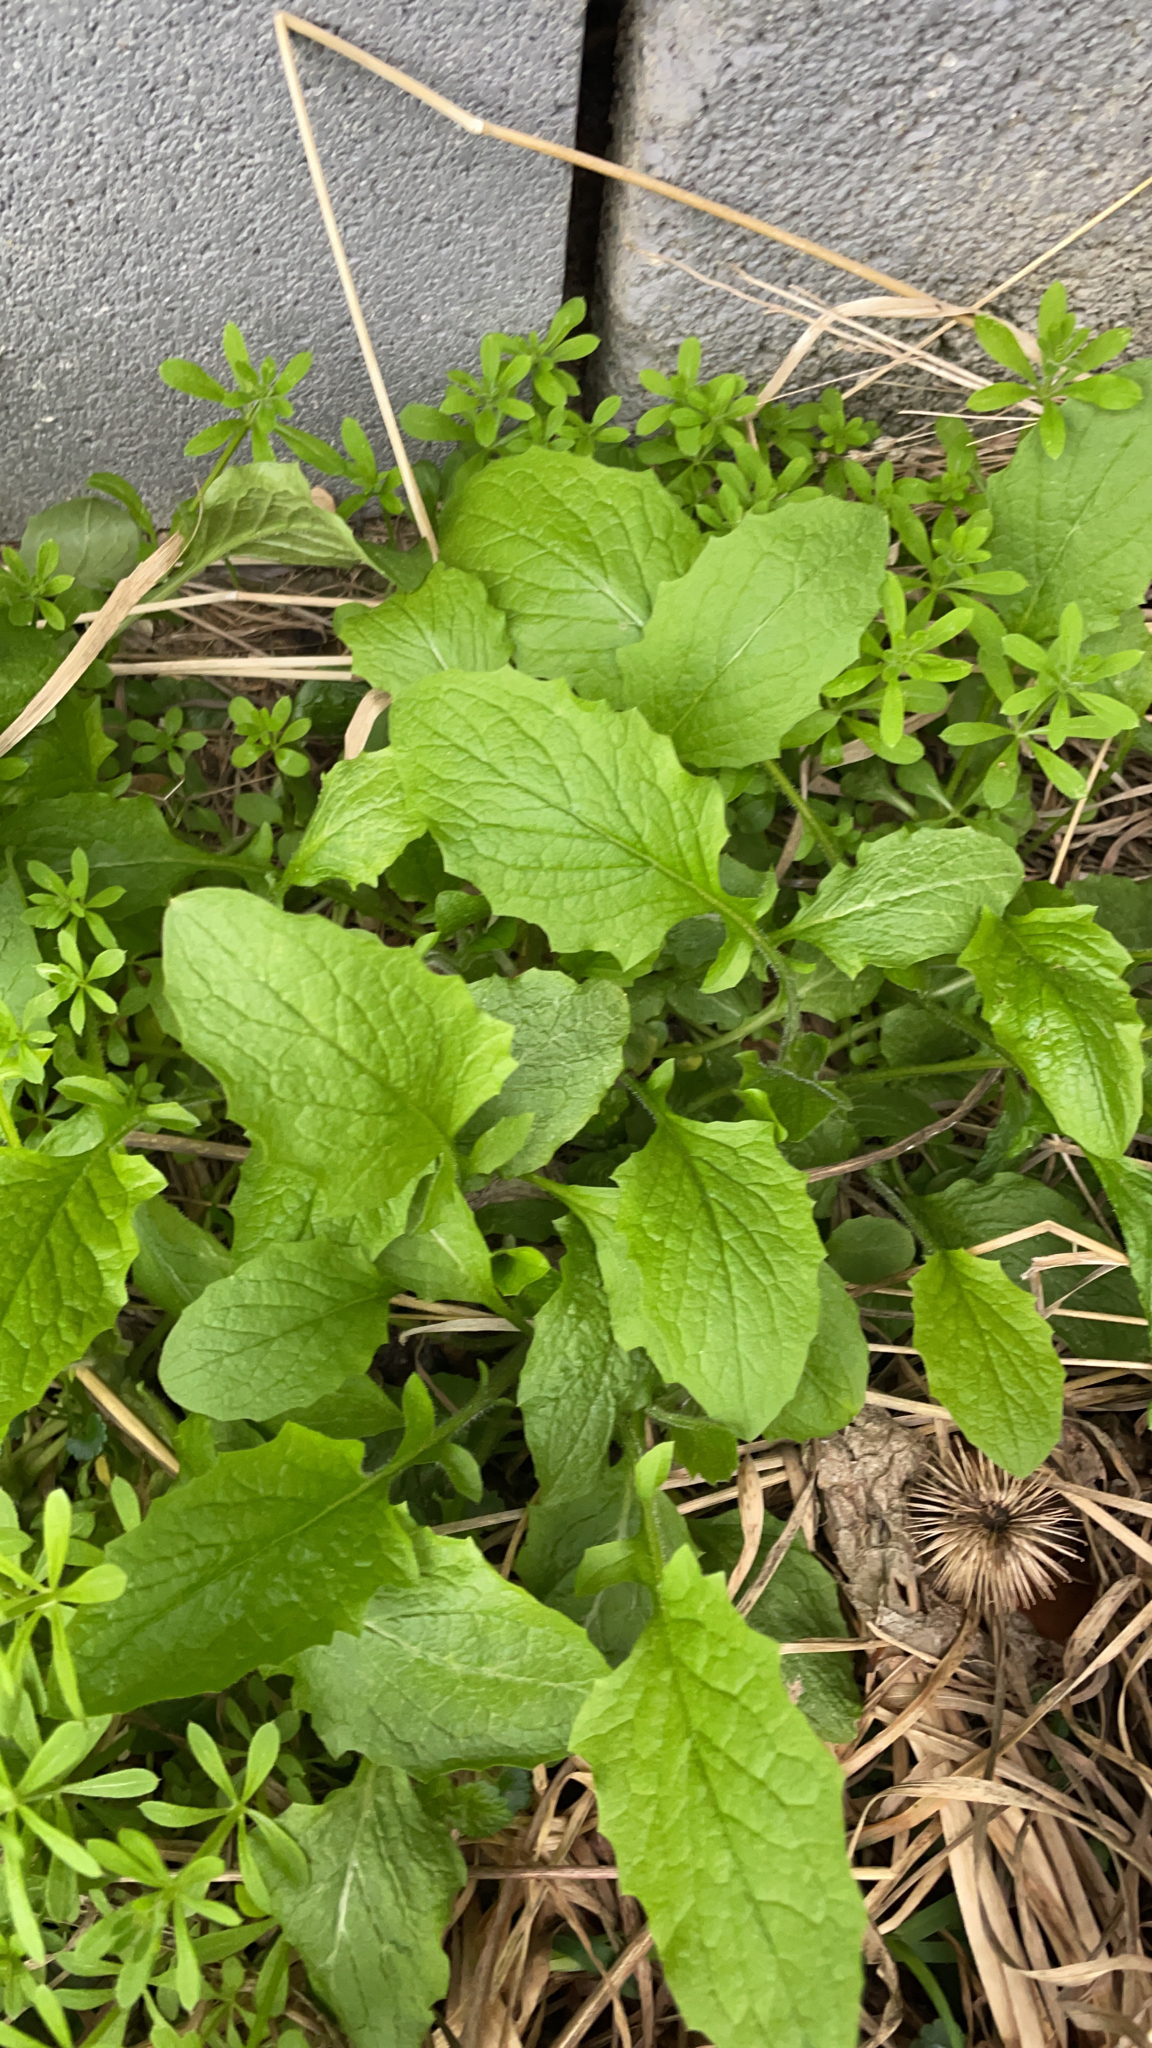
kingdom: Plantae
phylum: Tracheophyta
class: Magnoliopsida
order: Asterales
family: Asteraceae
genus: Lapsana
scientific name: Lapsana communis
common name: Nipplewort
